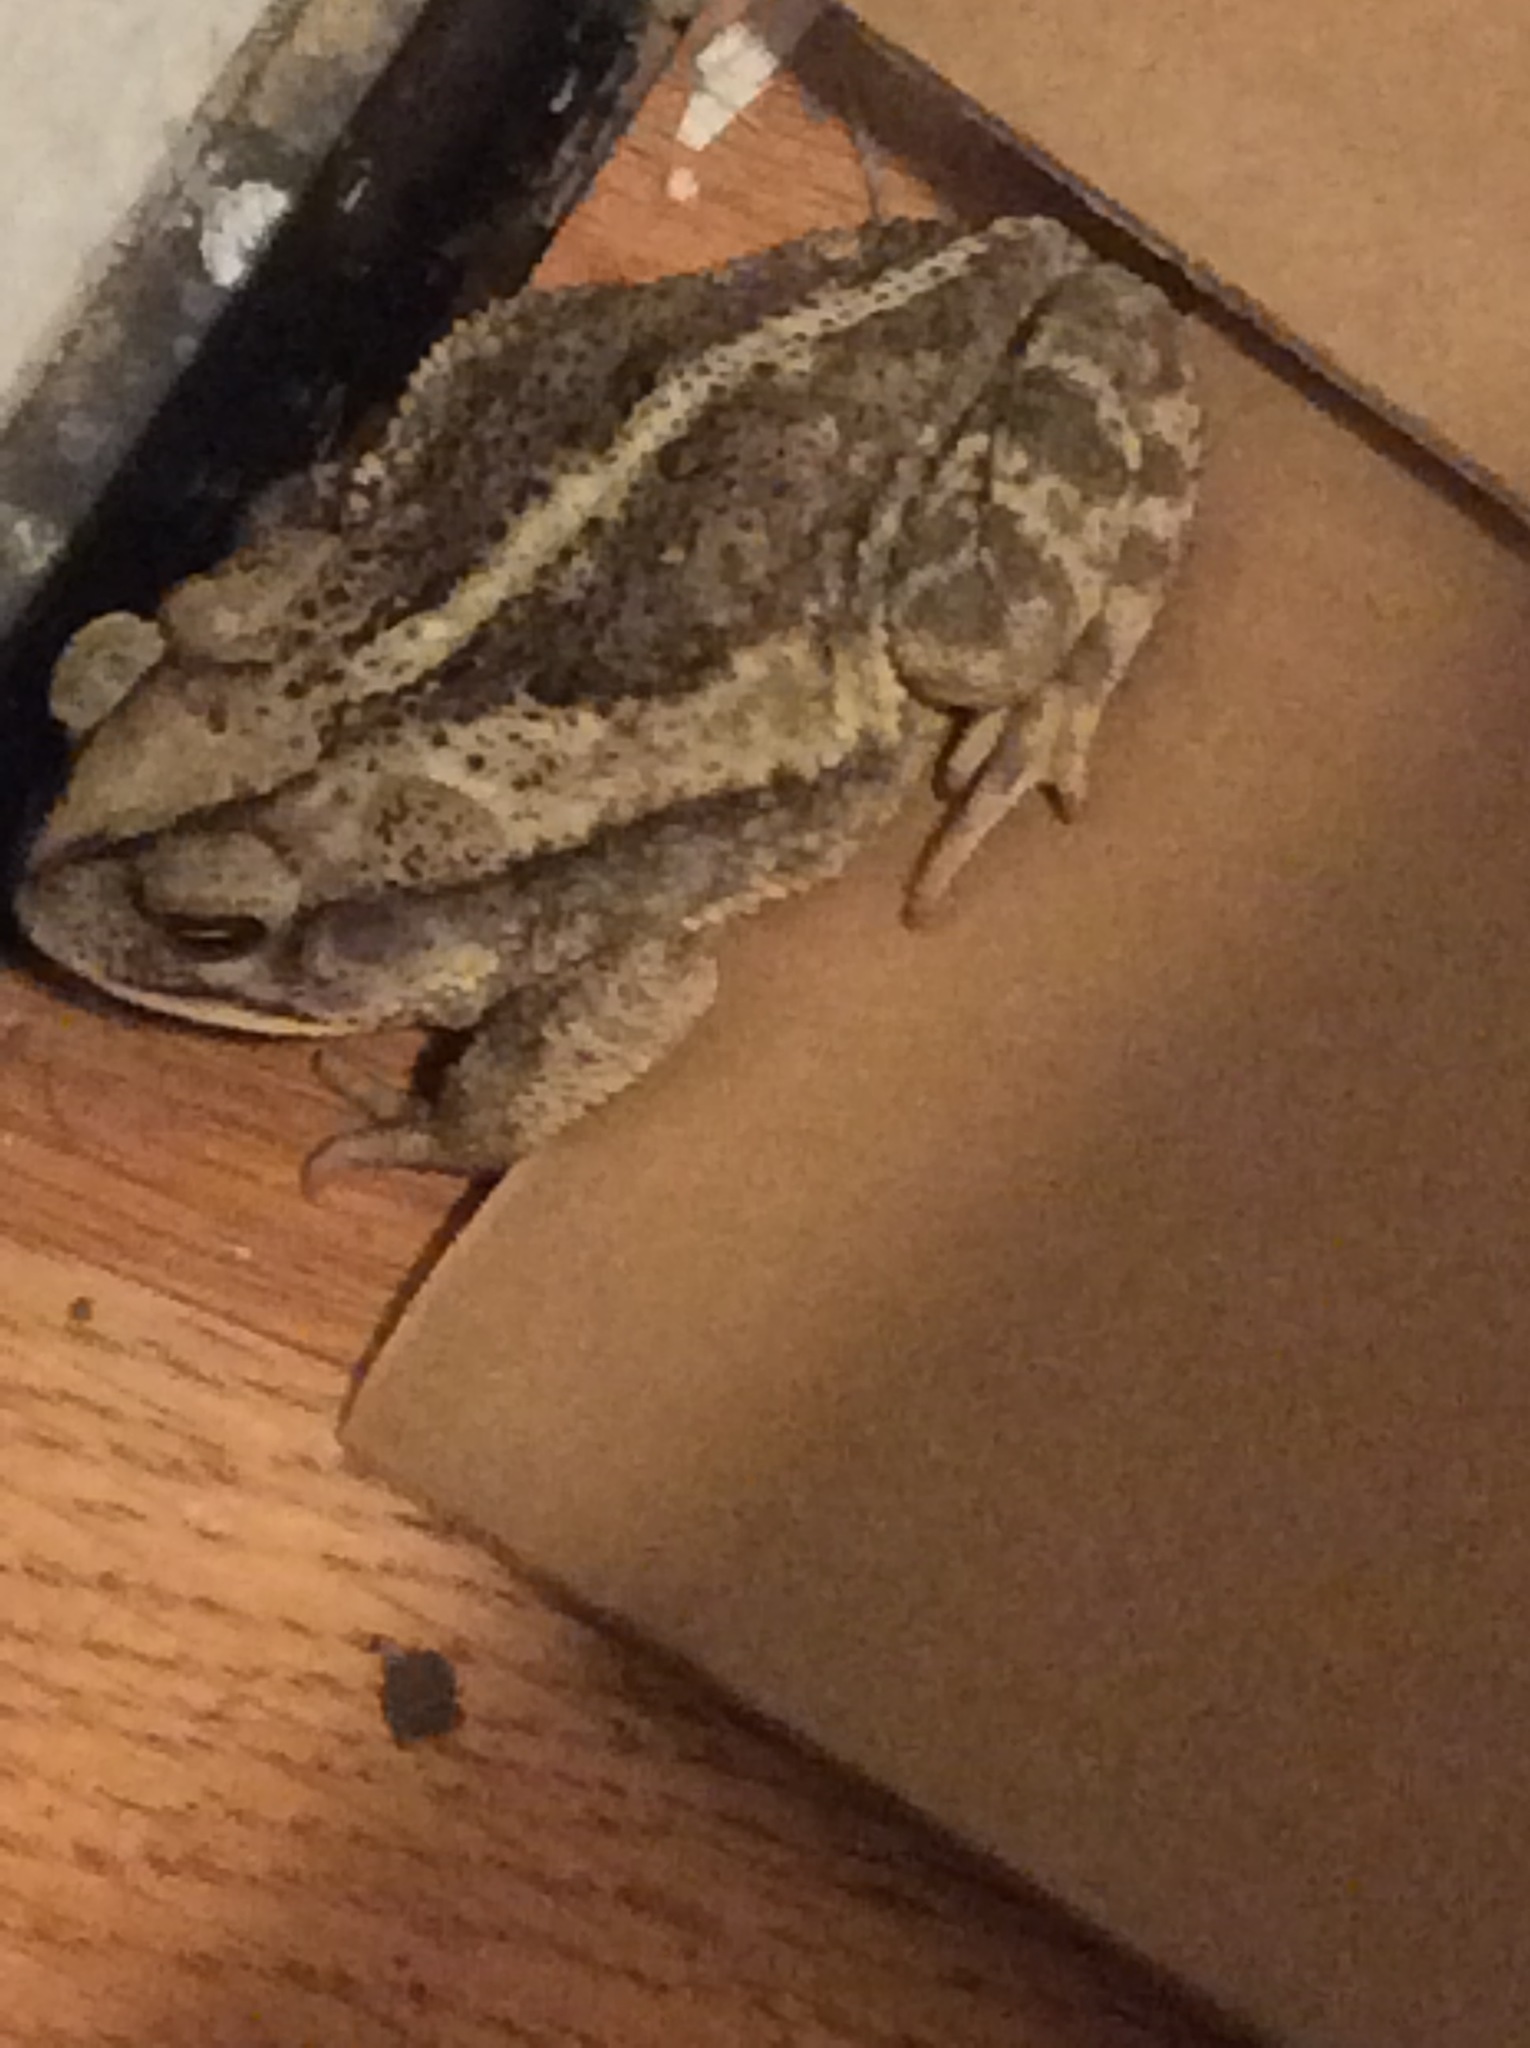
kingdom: Animalia
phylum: Chordata
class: Amphibia
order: Anura
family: Bufonidae
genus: Incilius
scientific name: Incilius nebulifer
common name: Gulf coast toad
